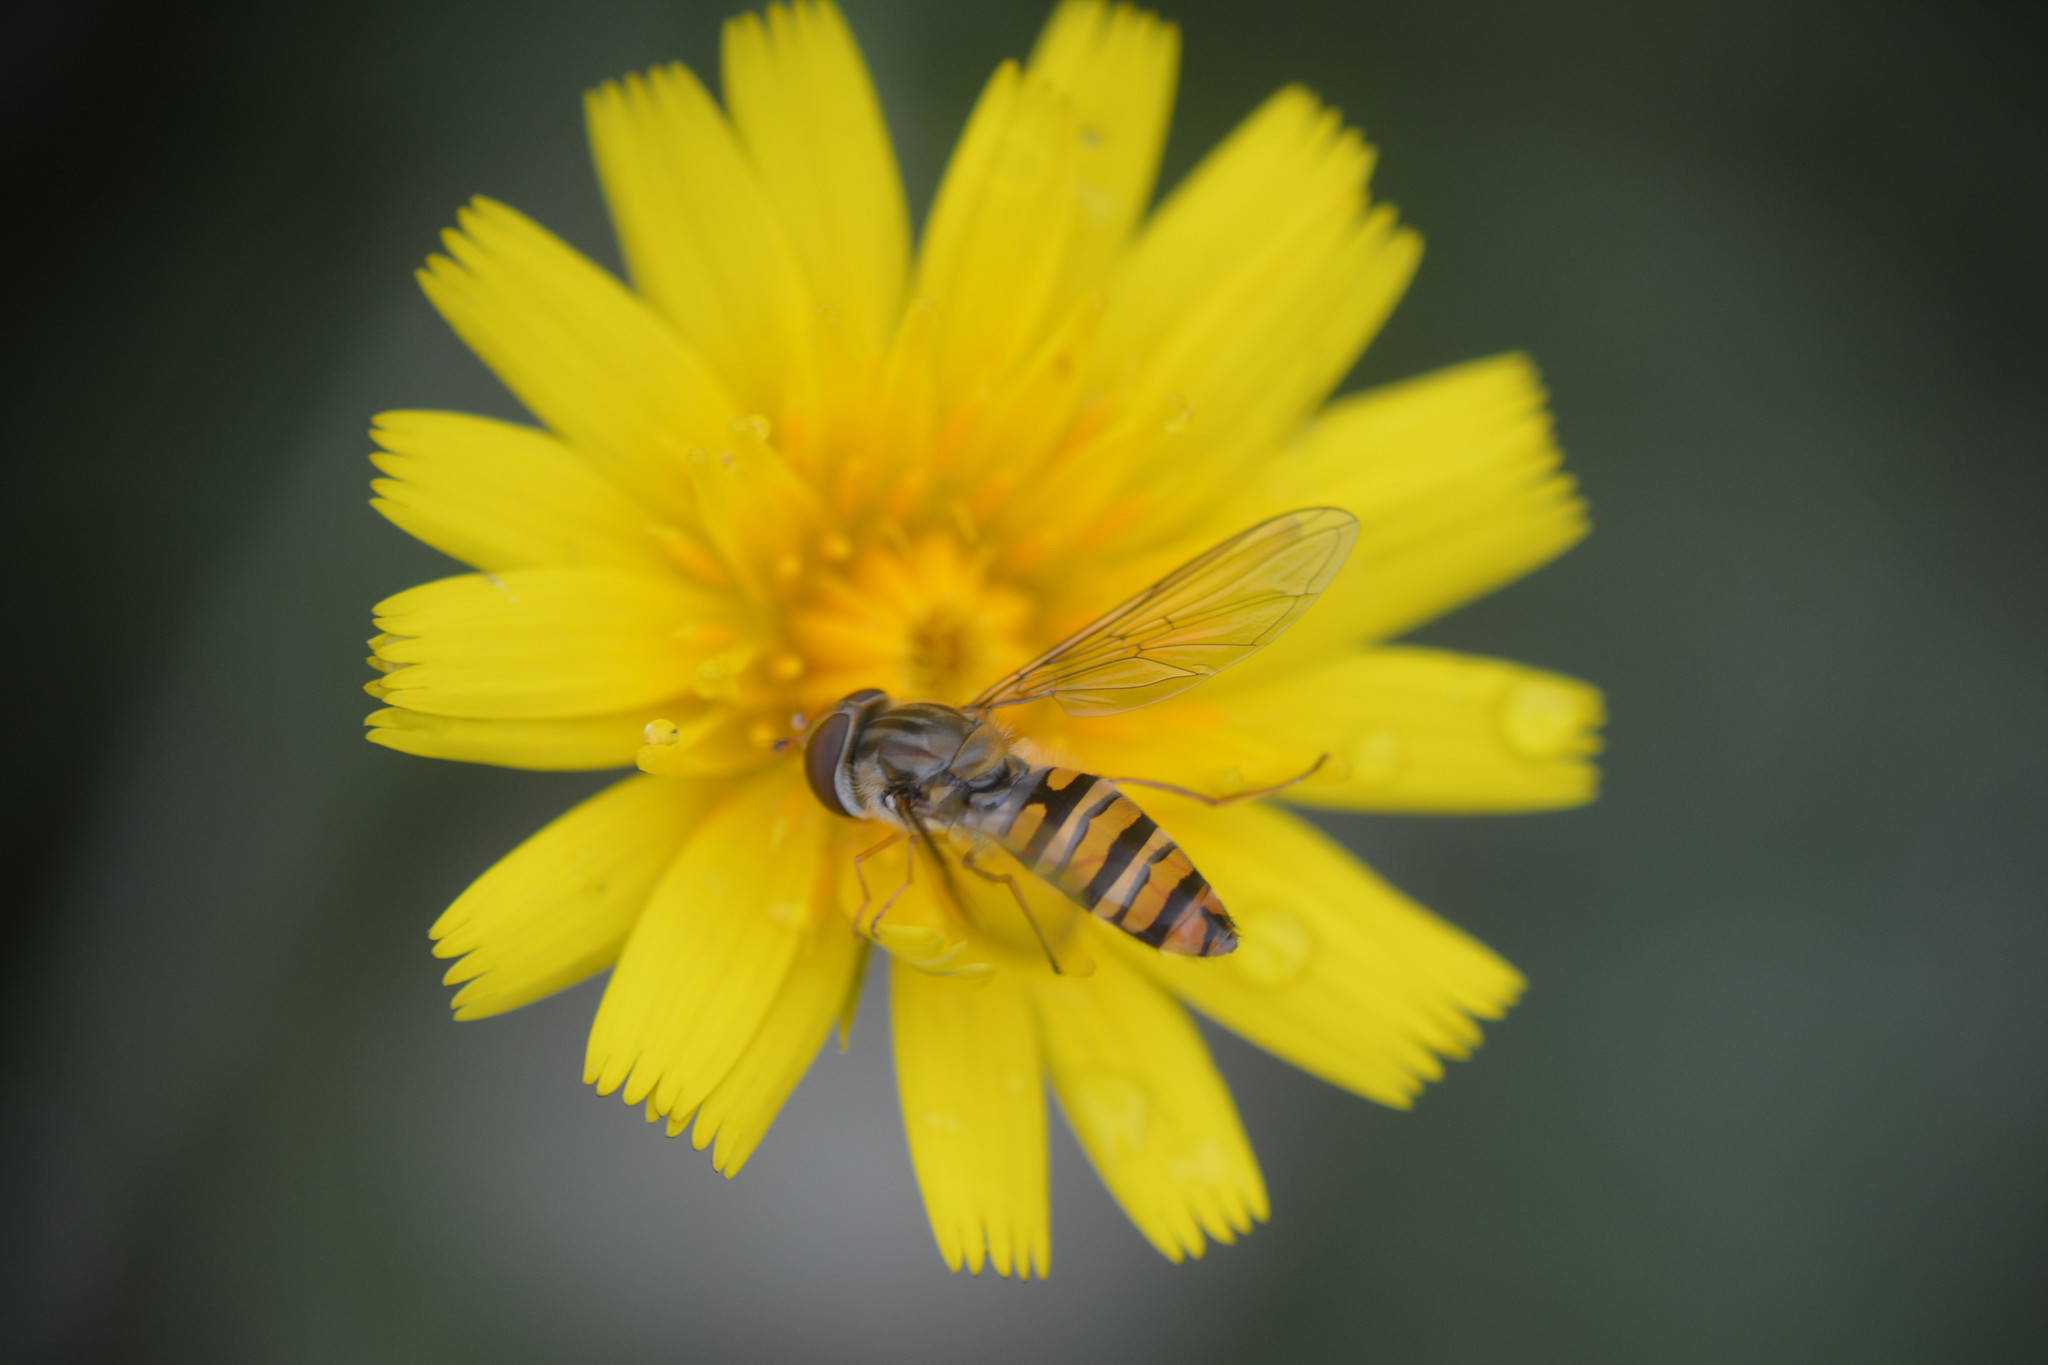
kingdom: Animalia
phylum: Arthropoda
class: Insecta
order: Diptera
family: Syrphidae
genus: Episyrphus
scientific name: Episyrphus balteatus
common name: Marmalade hoverfly
